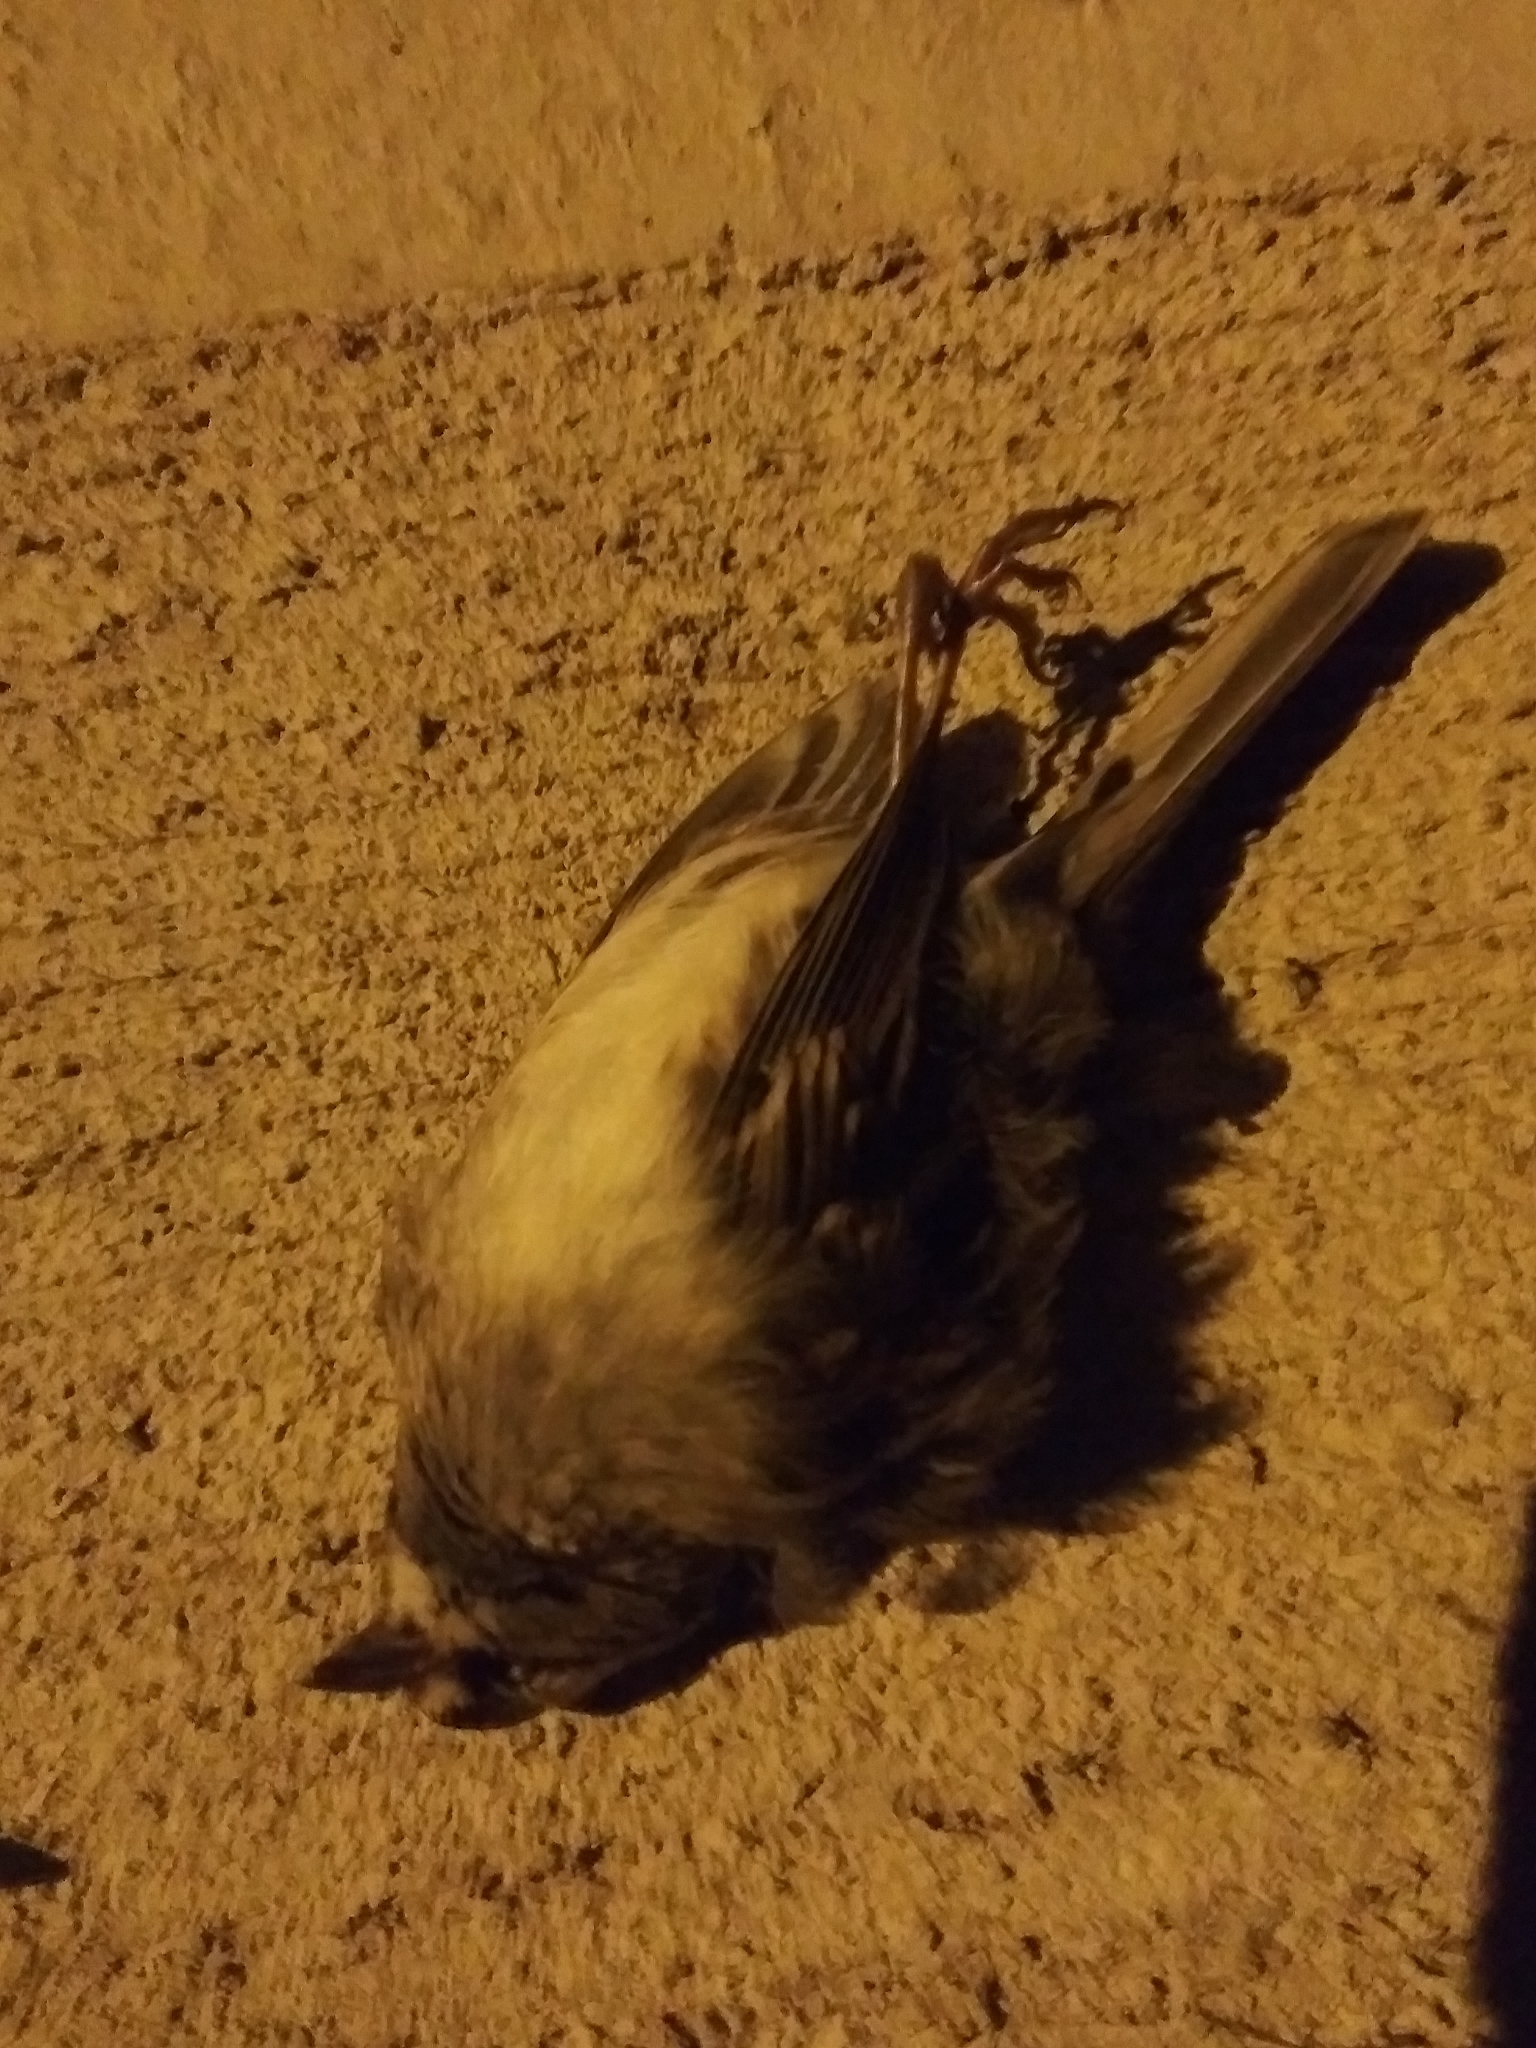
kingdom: Animalia
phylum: Chordata
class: Aves
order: Passeriformes
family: Passerellidae
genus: Zonotrichia
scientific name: Zonotrichia albicollis
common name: White-throated sparrow
